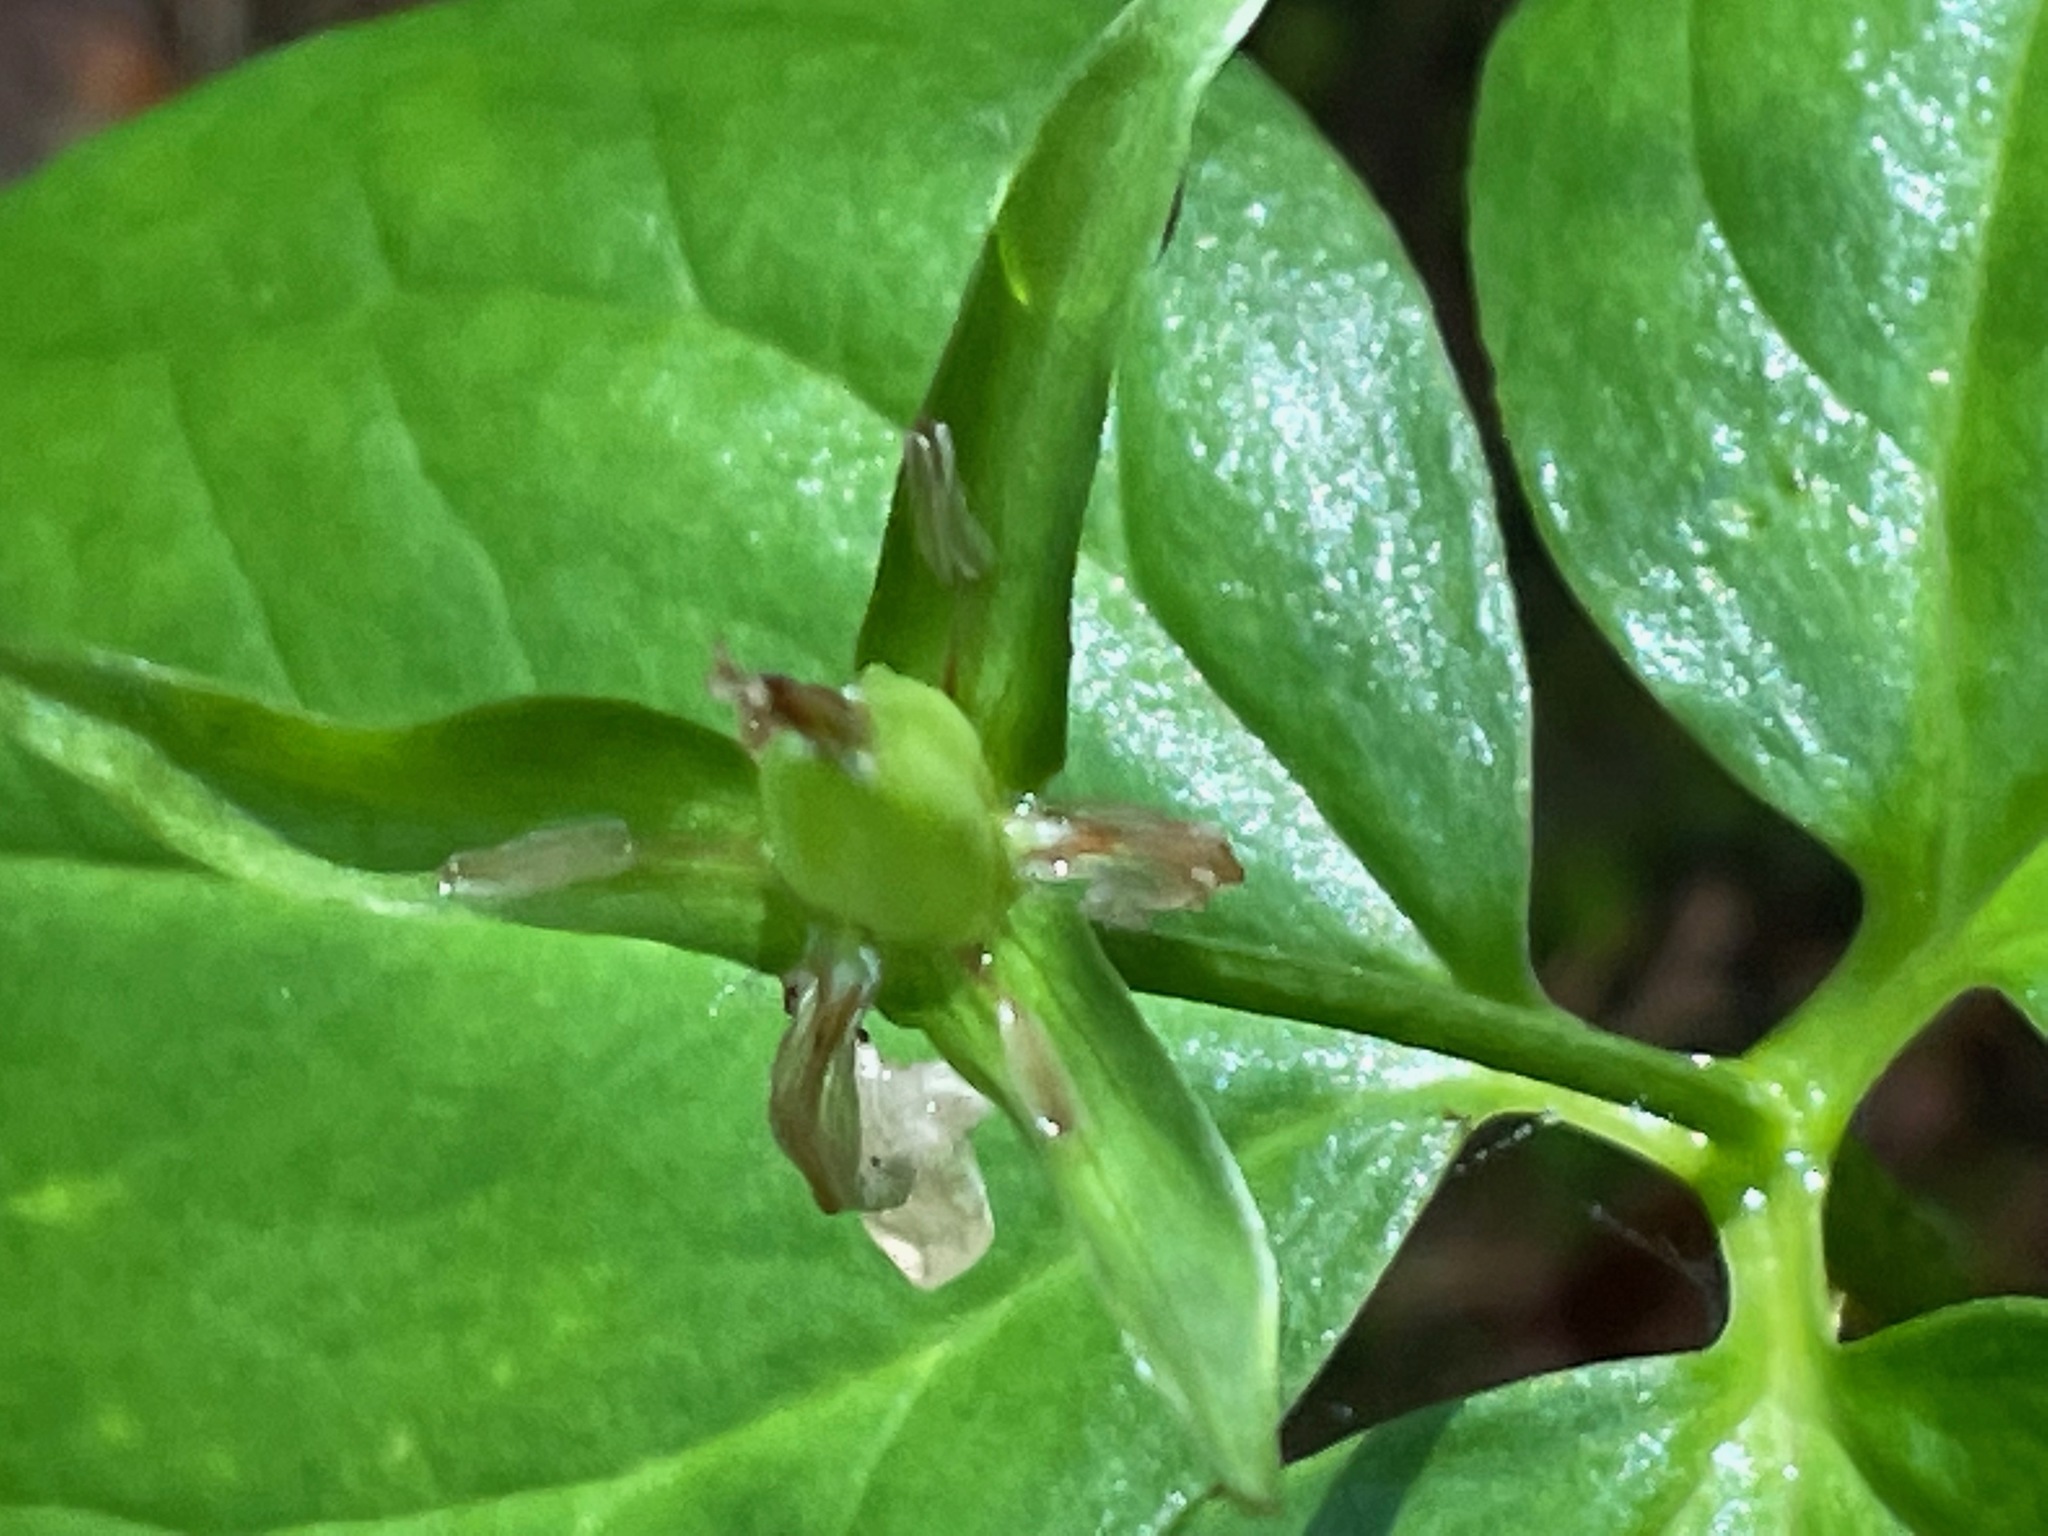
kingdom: Plantae
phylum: Tracheophyta
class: Liliopsida
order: Liliales
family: Melanthiaceae
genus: Trillium
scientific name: Trillium undulatum
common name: Paint trillium
